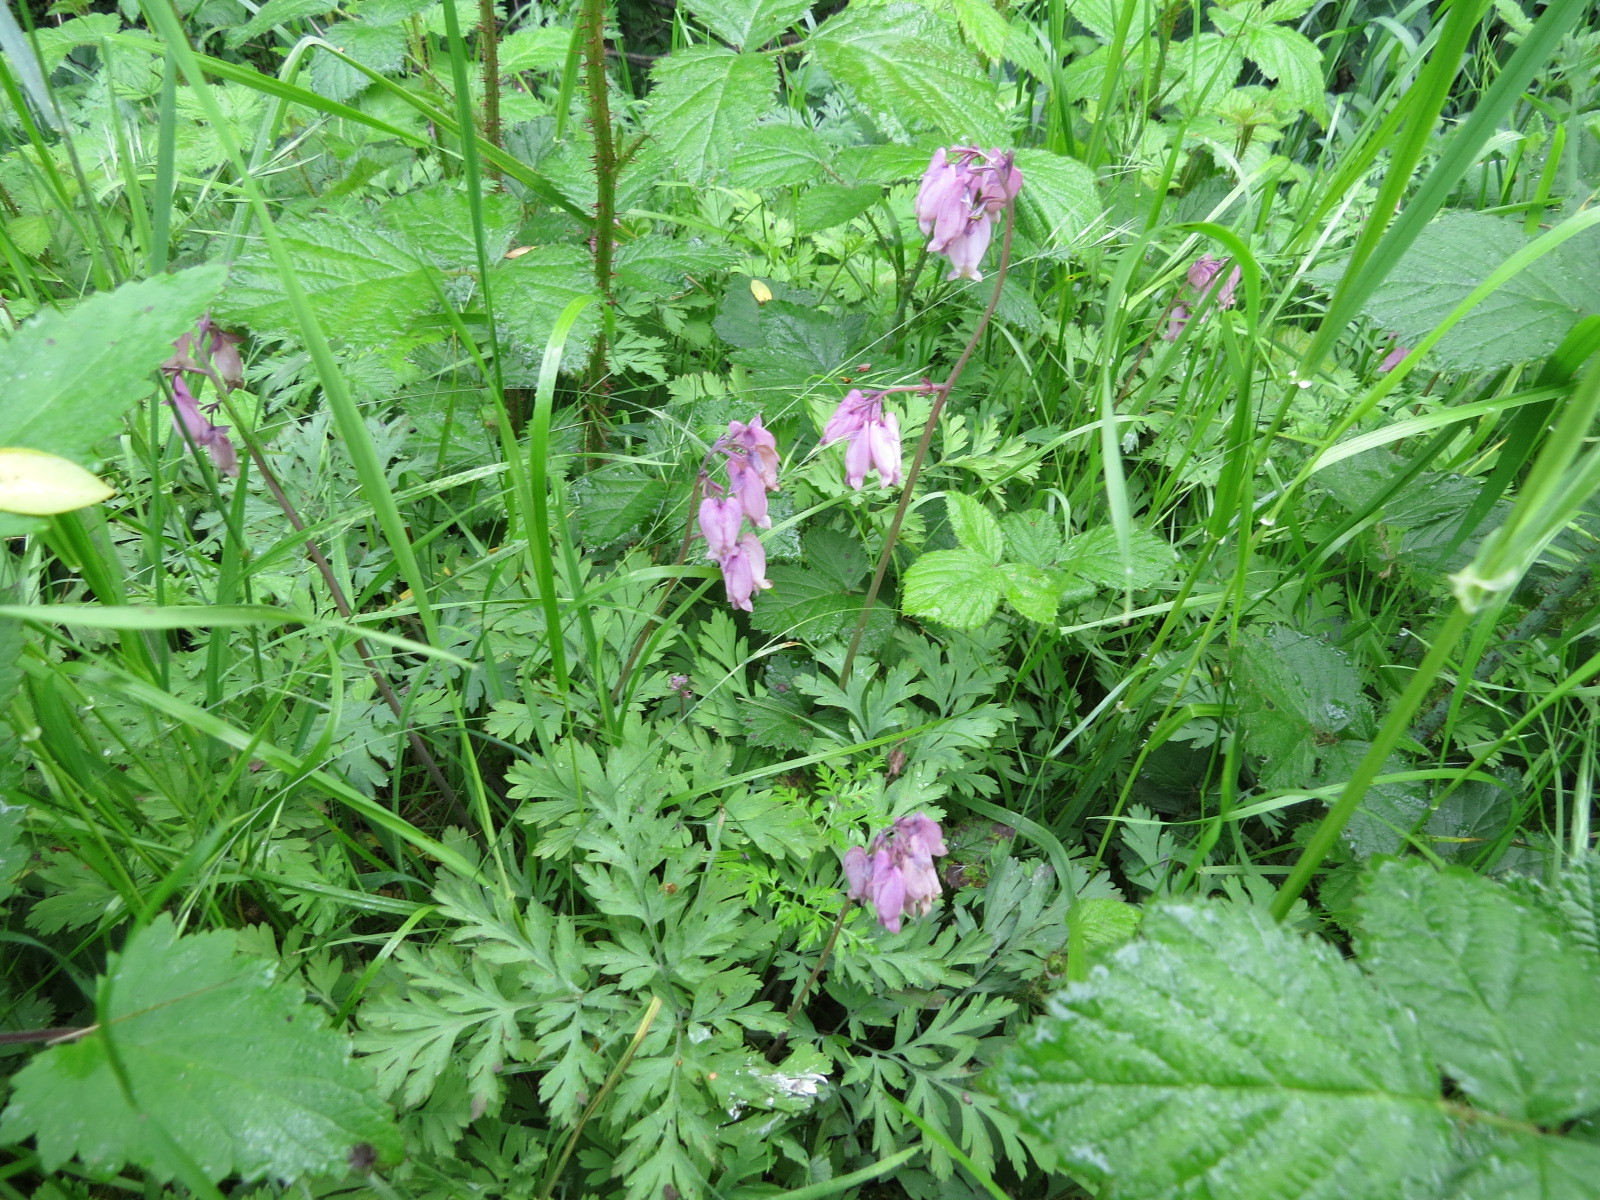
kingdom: Plantae
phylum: Tracheophyta
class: Magnoliopsida
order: Ranunculales
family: Papaveraceae
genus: Dicentra
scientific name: Dicentra formosa
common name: Bleeding-heart
